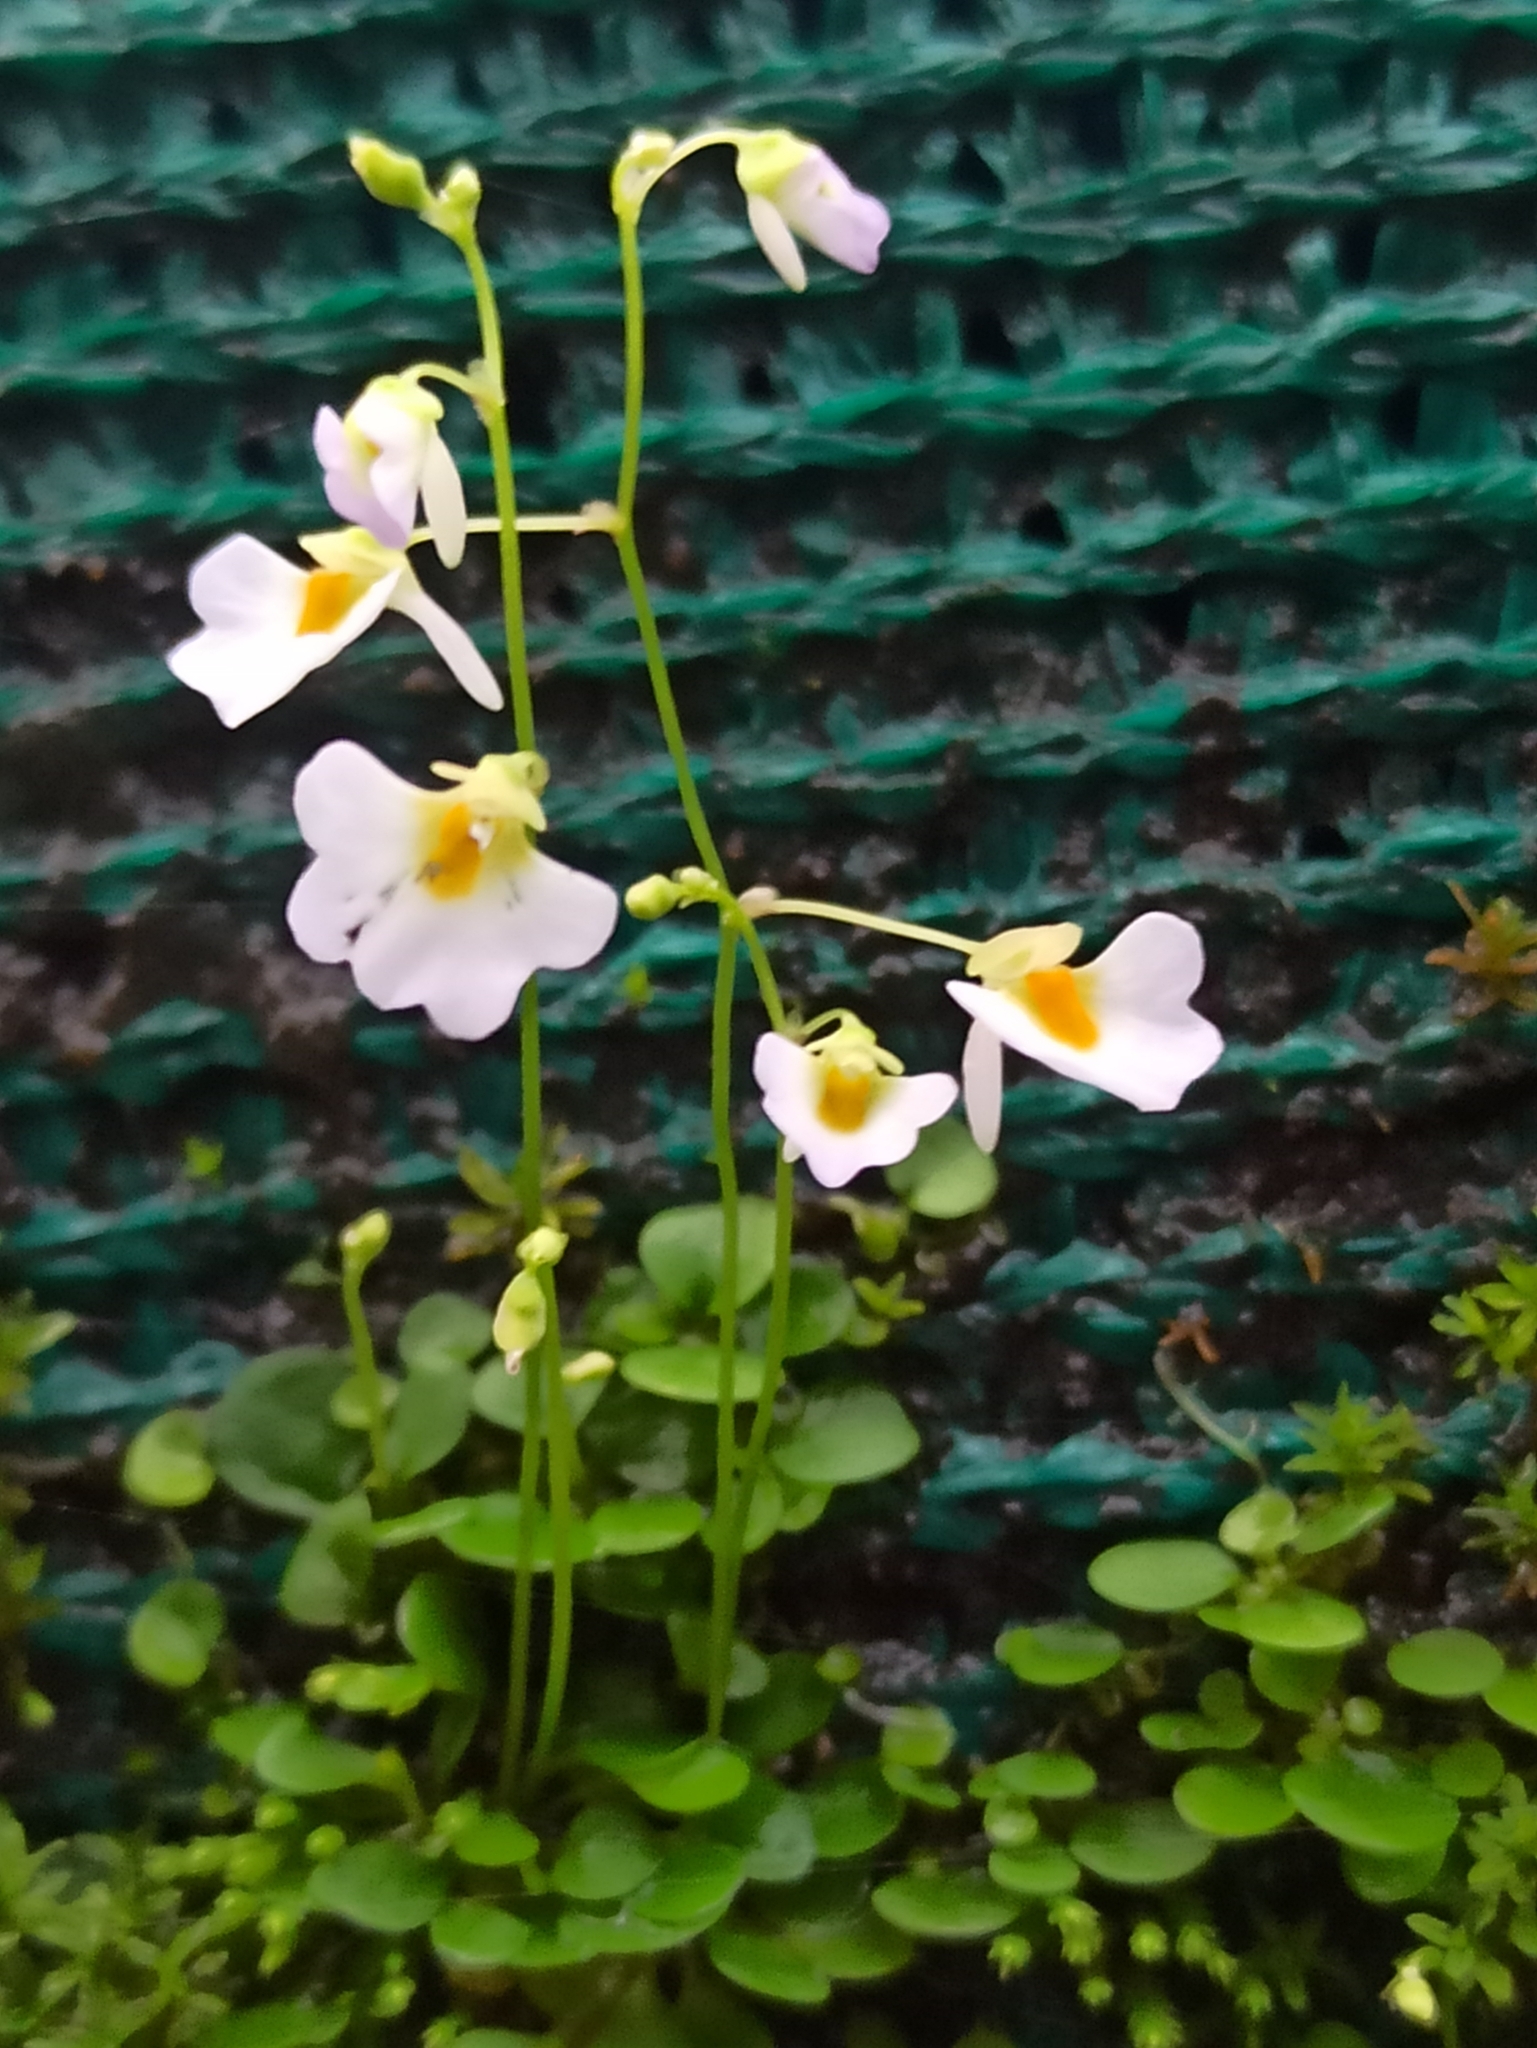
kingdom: Plantae
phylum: Tracheophyta
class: Magnoliopsida
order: Lamiales
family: Lentibulariaceae
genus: Utricularia
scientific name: Utricularia striatula
